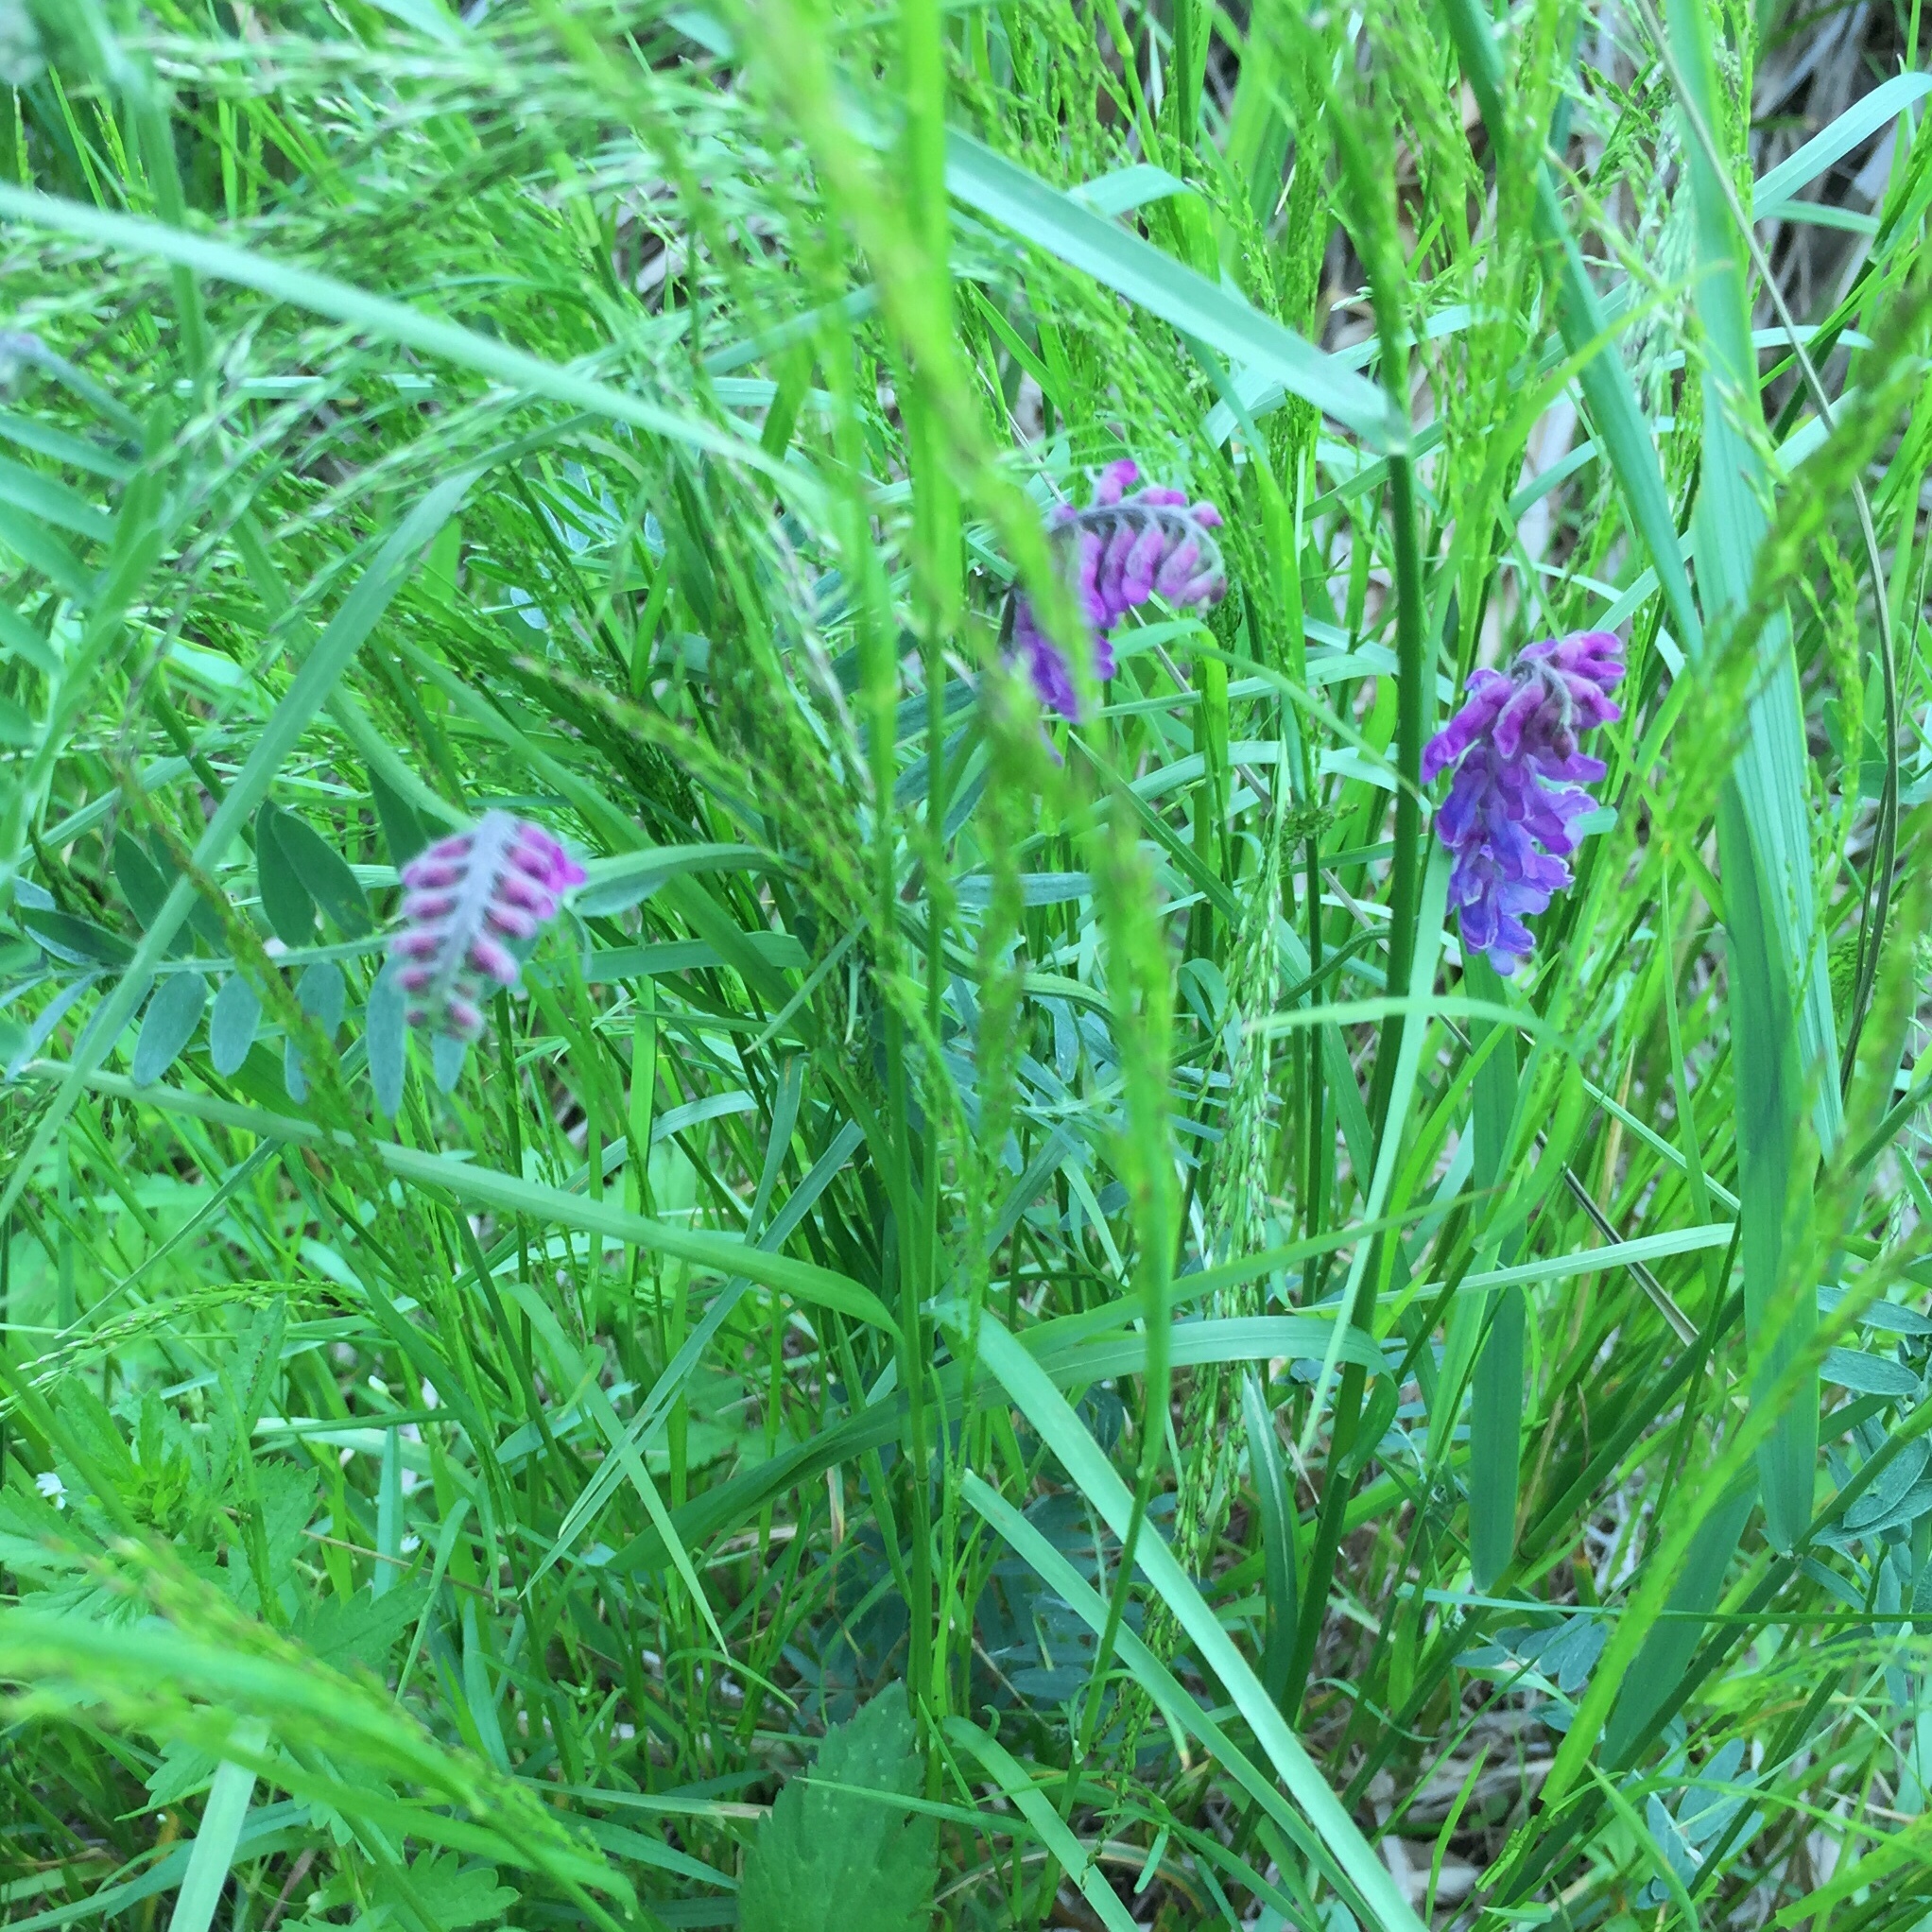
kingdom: Plantae
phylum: Tracheophyta
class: Magnoliopsida
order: Fabales
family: Fabaceae
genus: Vicia
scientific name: Vicia cracca
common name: Bird vetch
